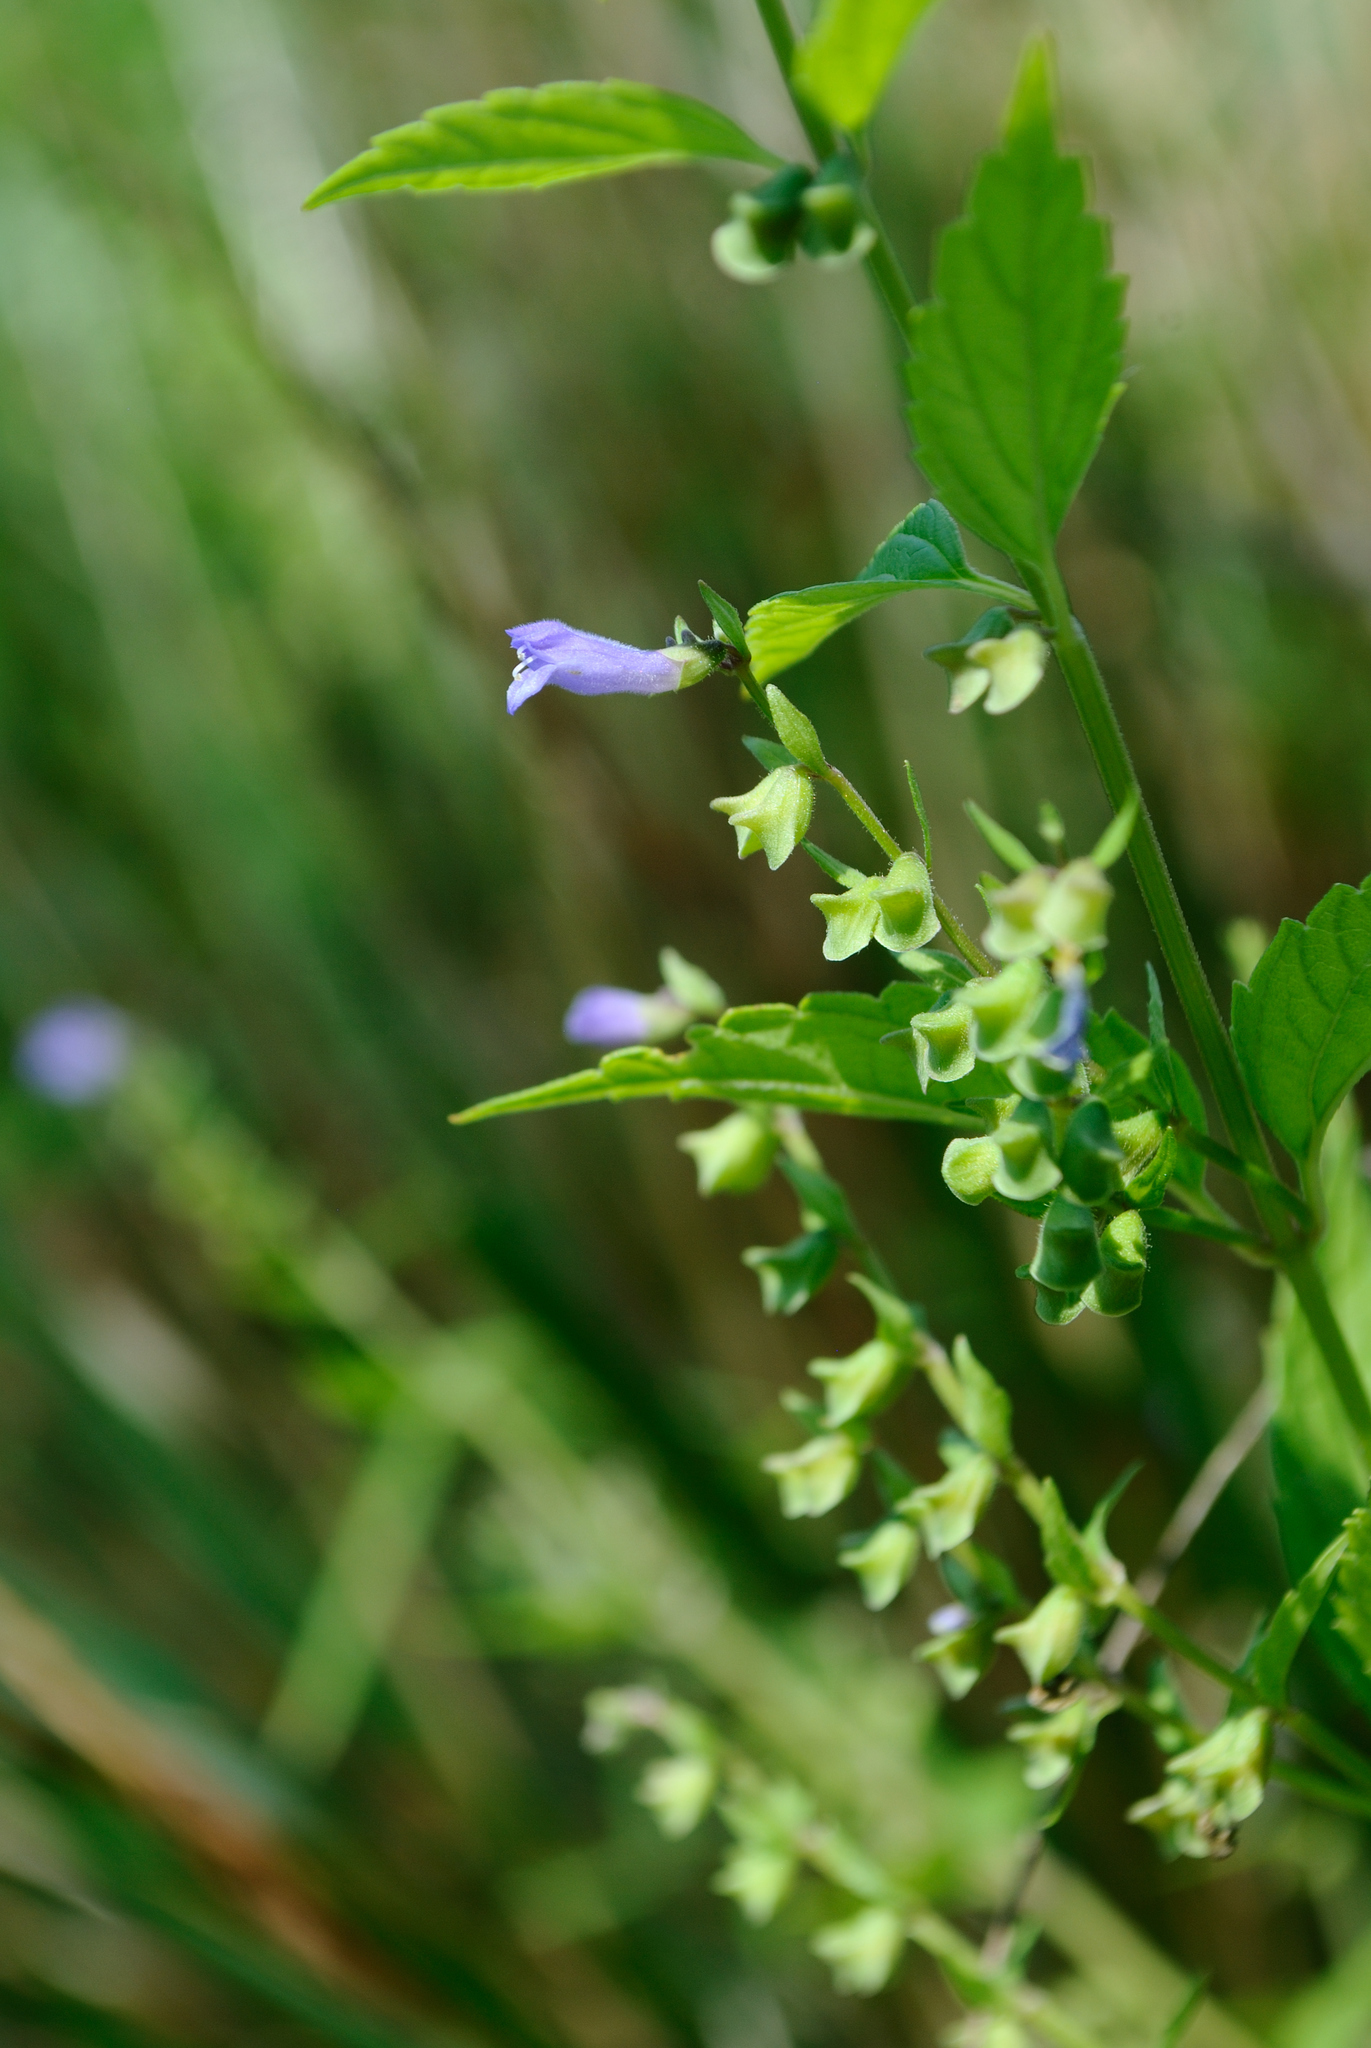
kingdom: Plantae
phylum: Tracheophyta
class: Magnoliopsida
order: Lamiales
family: Lamiaceae
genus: Scutellaria
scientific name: Scutellaria lateriflora
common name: Blue skullcap
